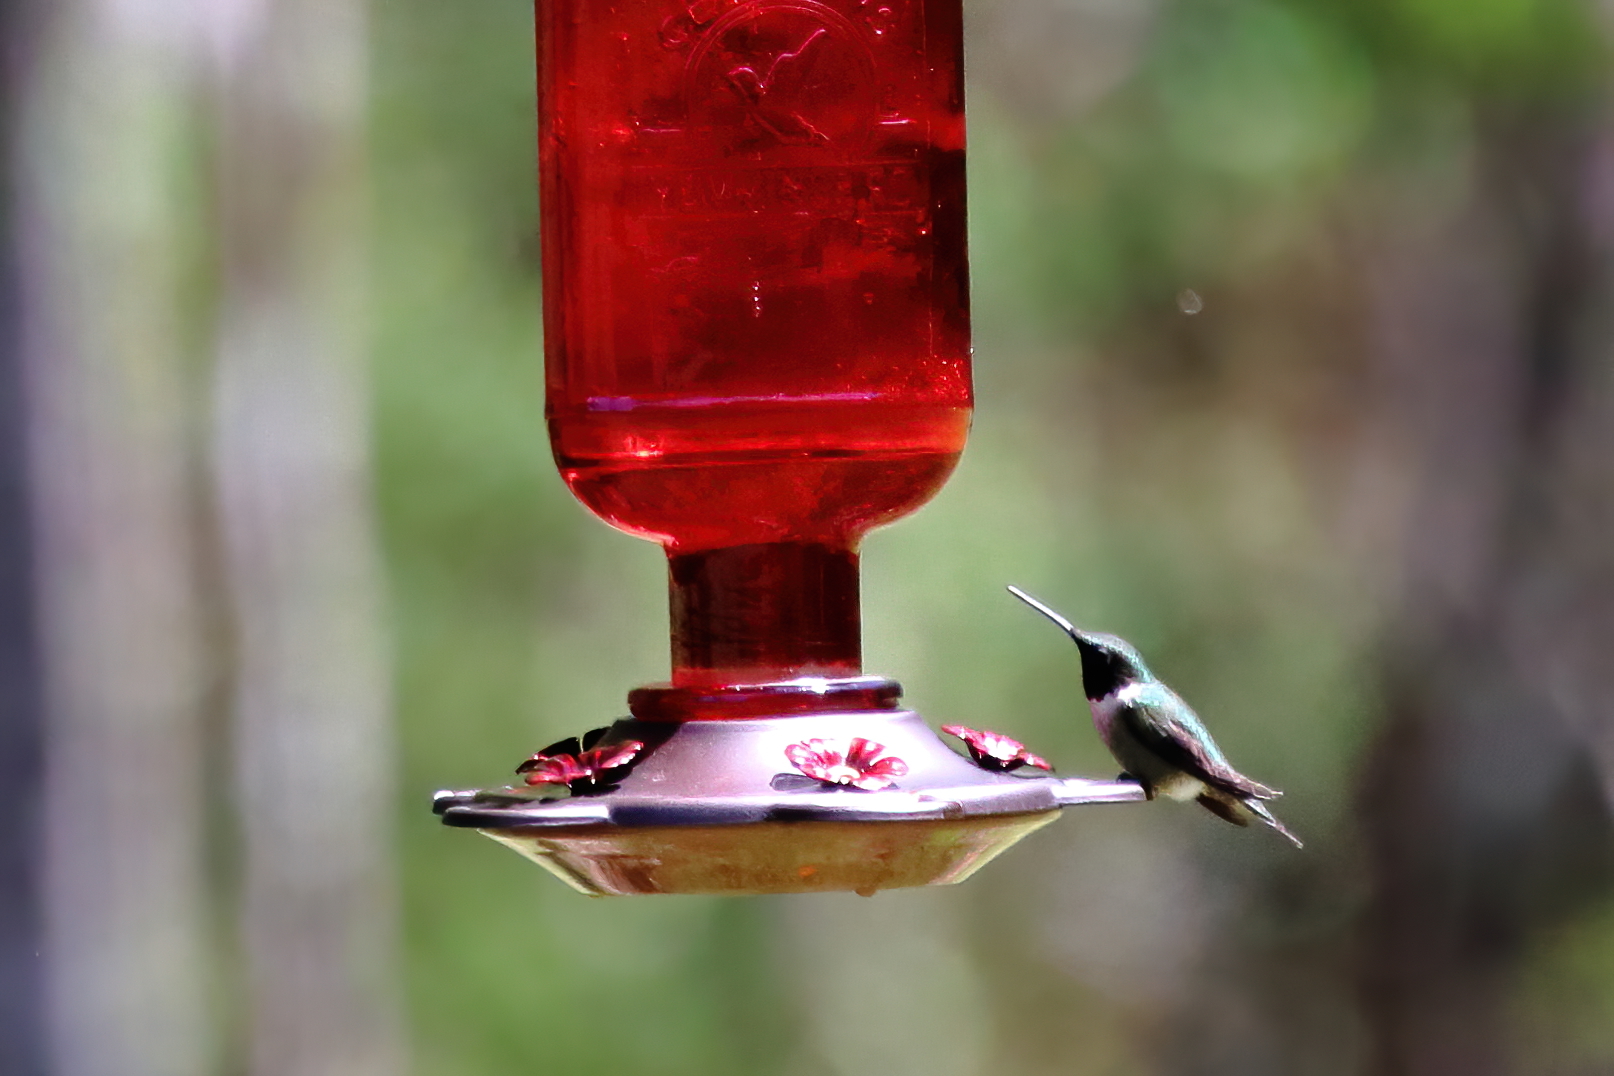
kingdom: Animalia
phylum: Chordata
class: Aves
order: Apodiformes
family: Trochilidae
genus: Archilochus
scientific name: Archilochus colubris
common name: Ruby-throated hummingbird
